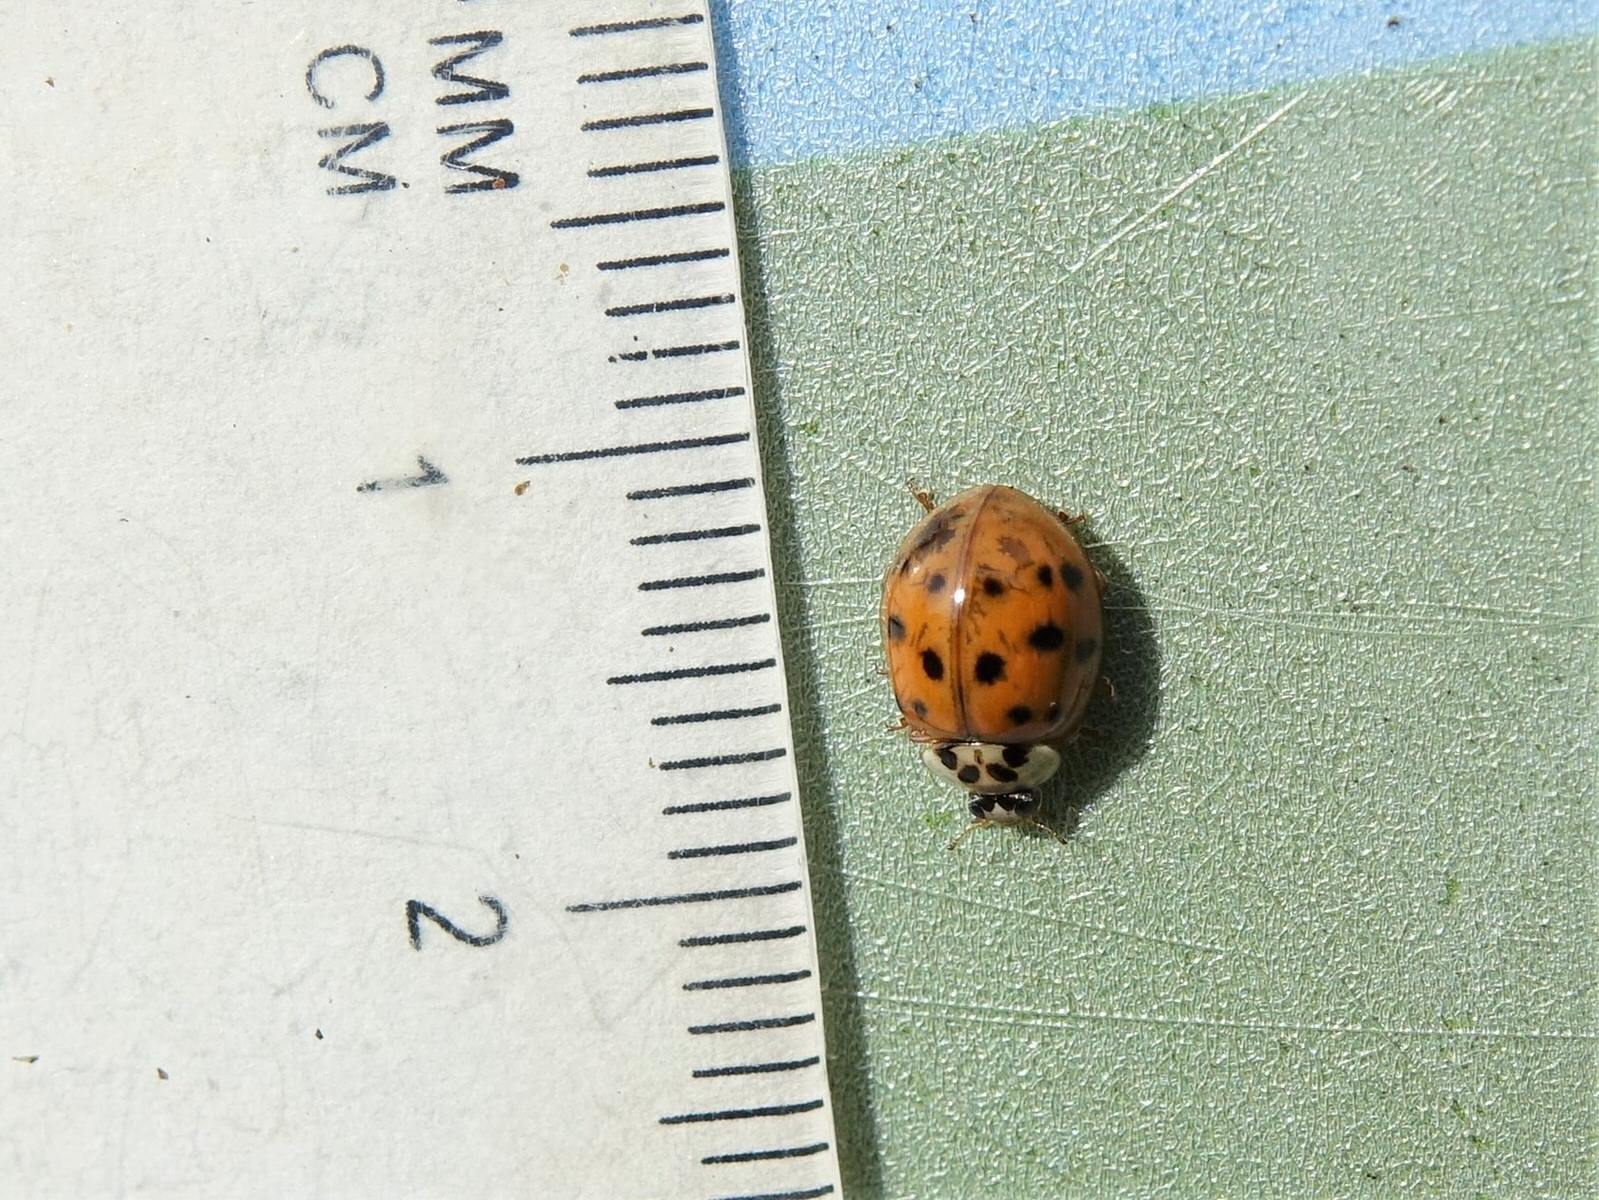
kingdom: Animalia
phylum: Arthropoda
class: Insecta
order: Coleoptera
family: Coccinellidae
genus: Harmonia
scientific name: Harmonia axyridis
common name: Harlequin ladybird
